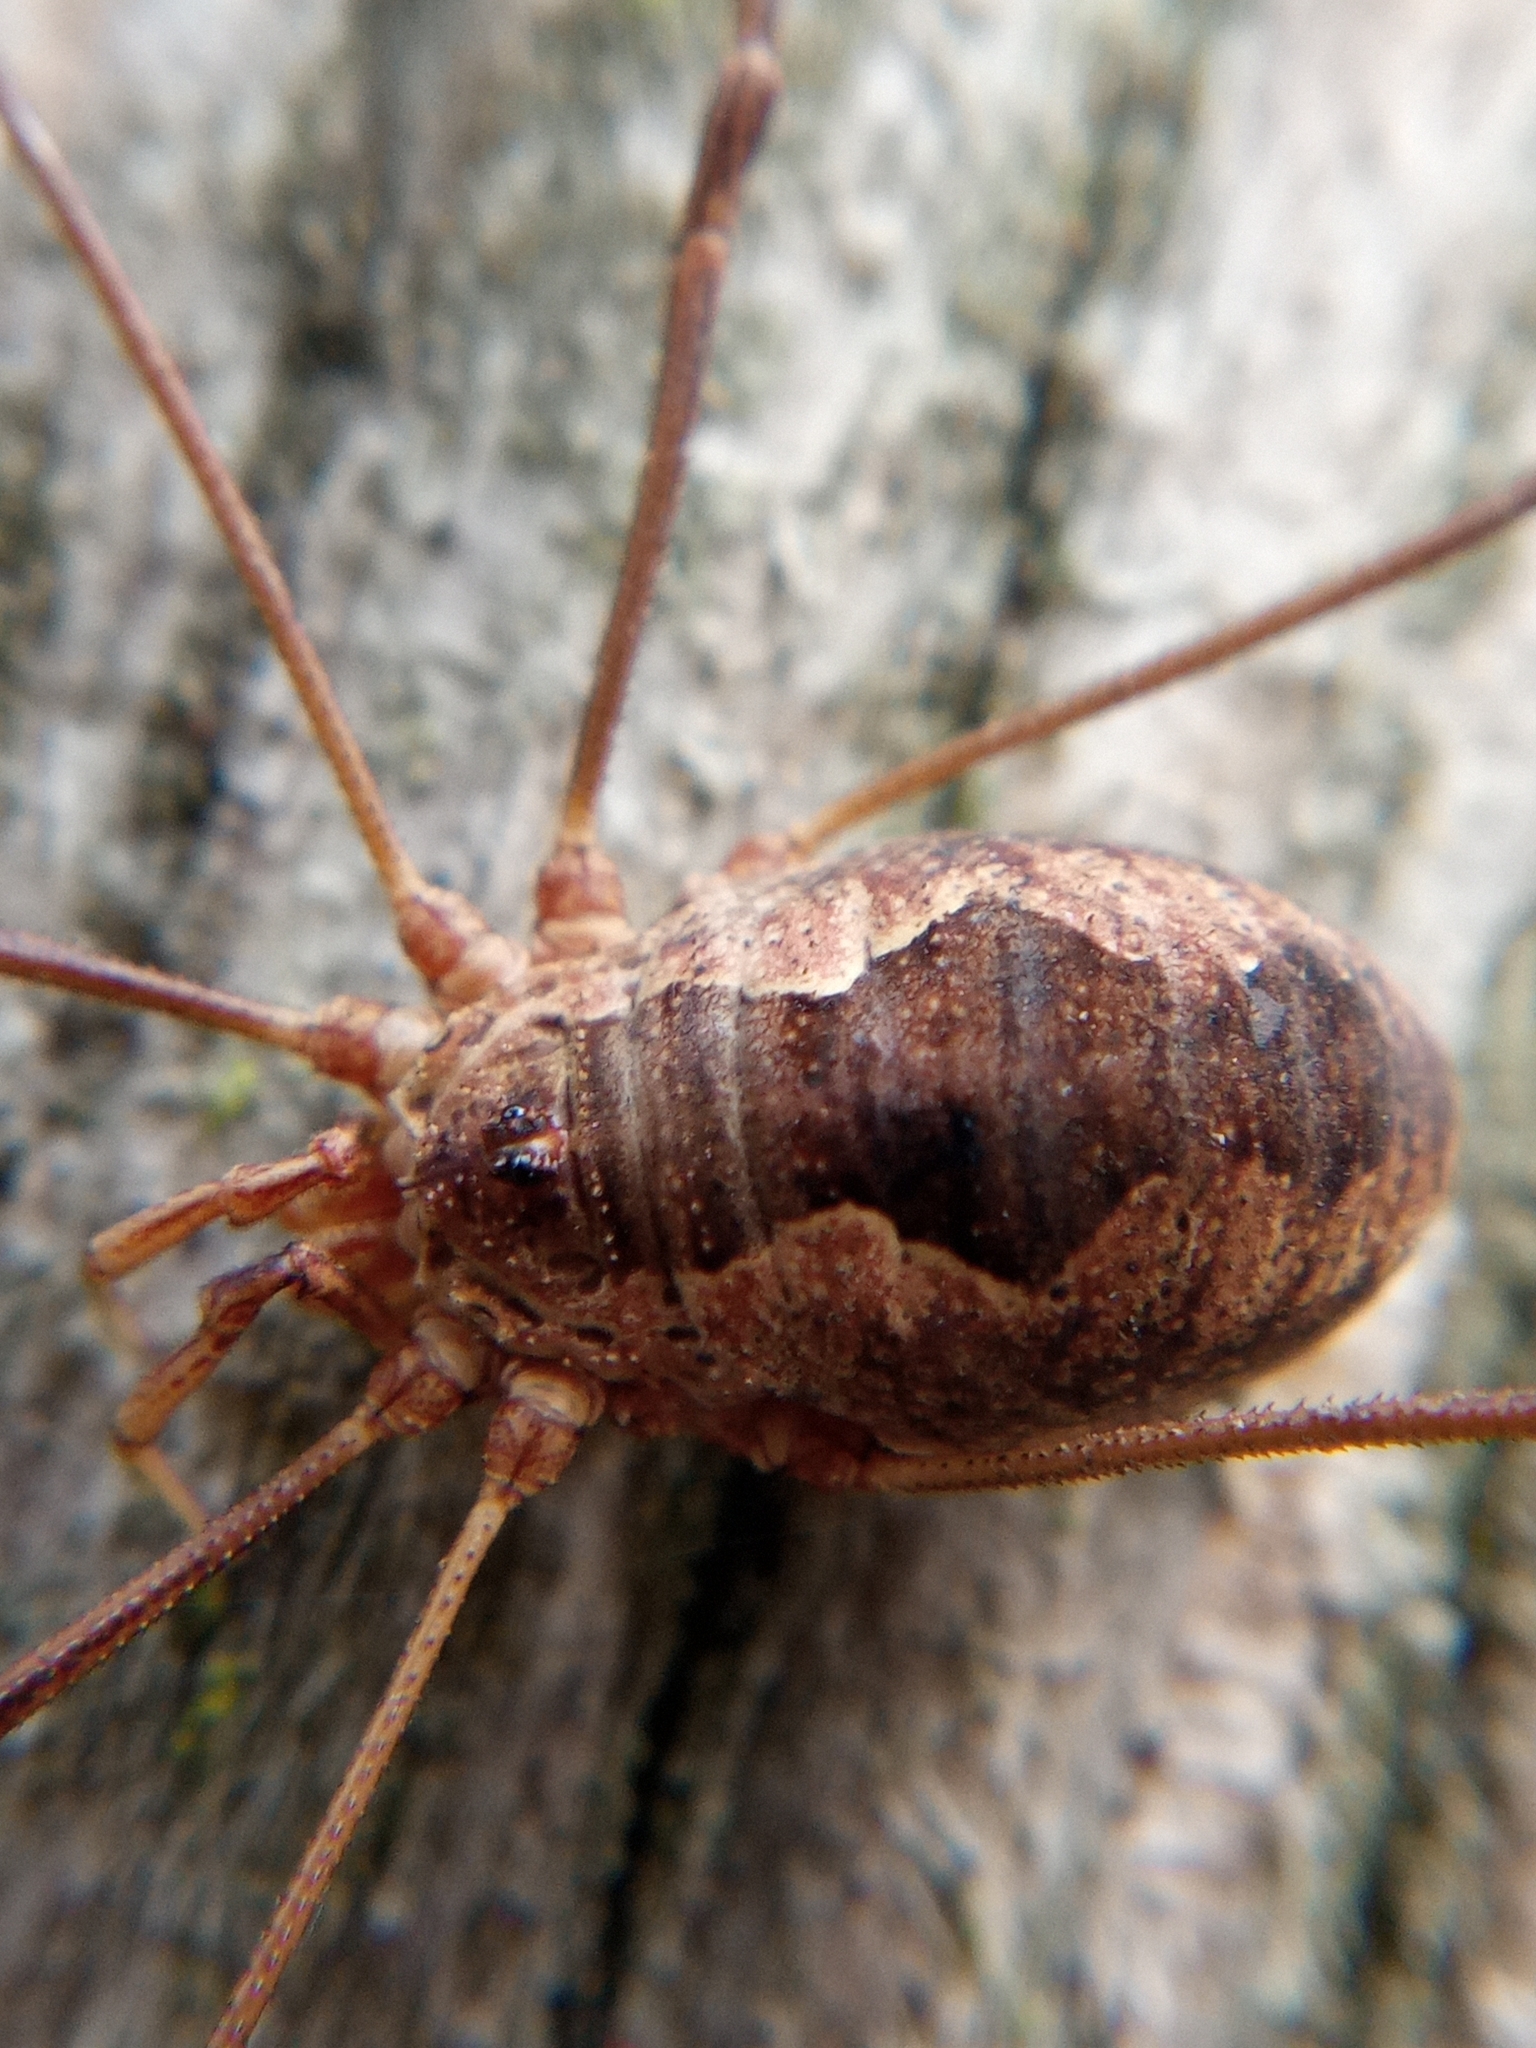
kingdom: Animalia
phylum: Arthropoda
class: Arachnida
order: Opiliones
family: Phalangiidae
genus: Phalangium
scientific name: Phalangium opilio
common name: Daddy longleg
